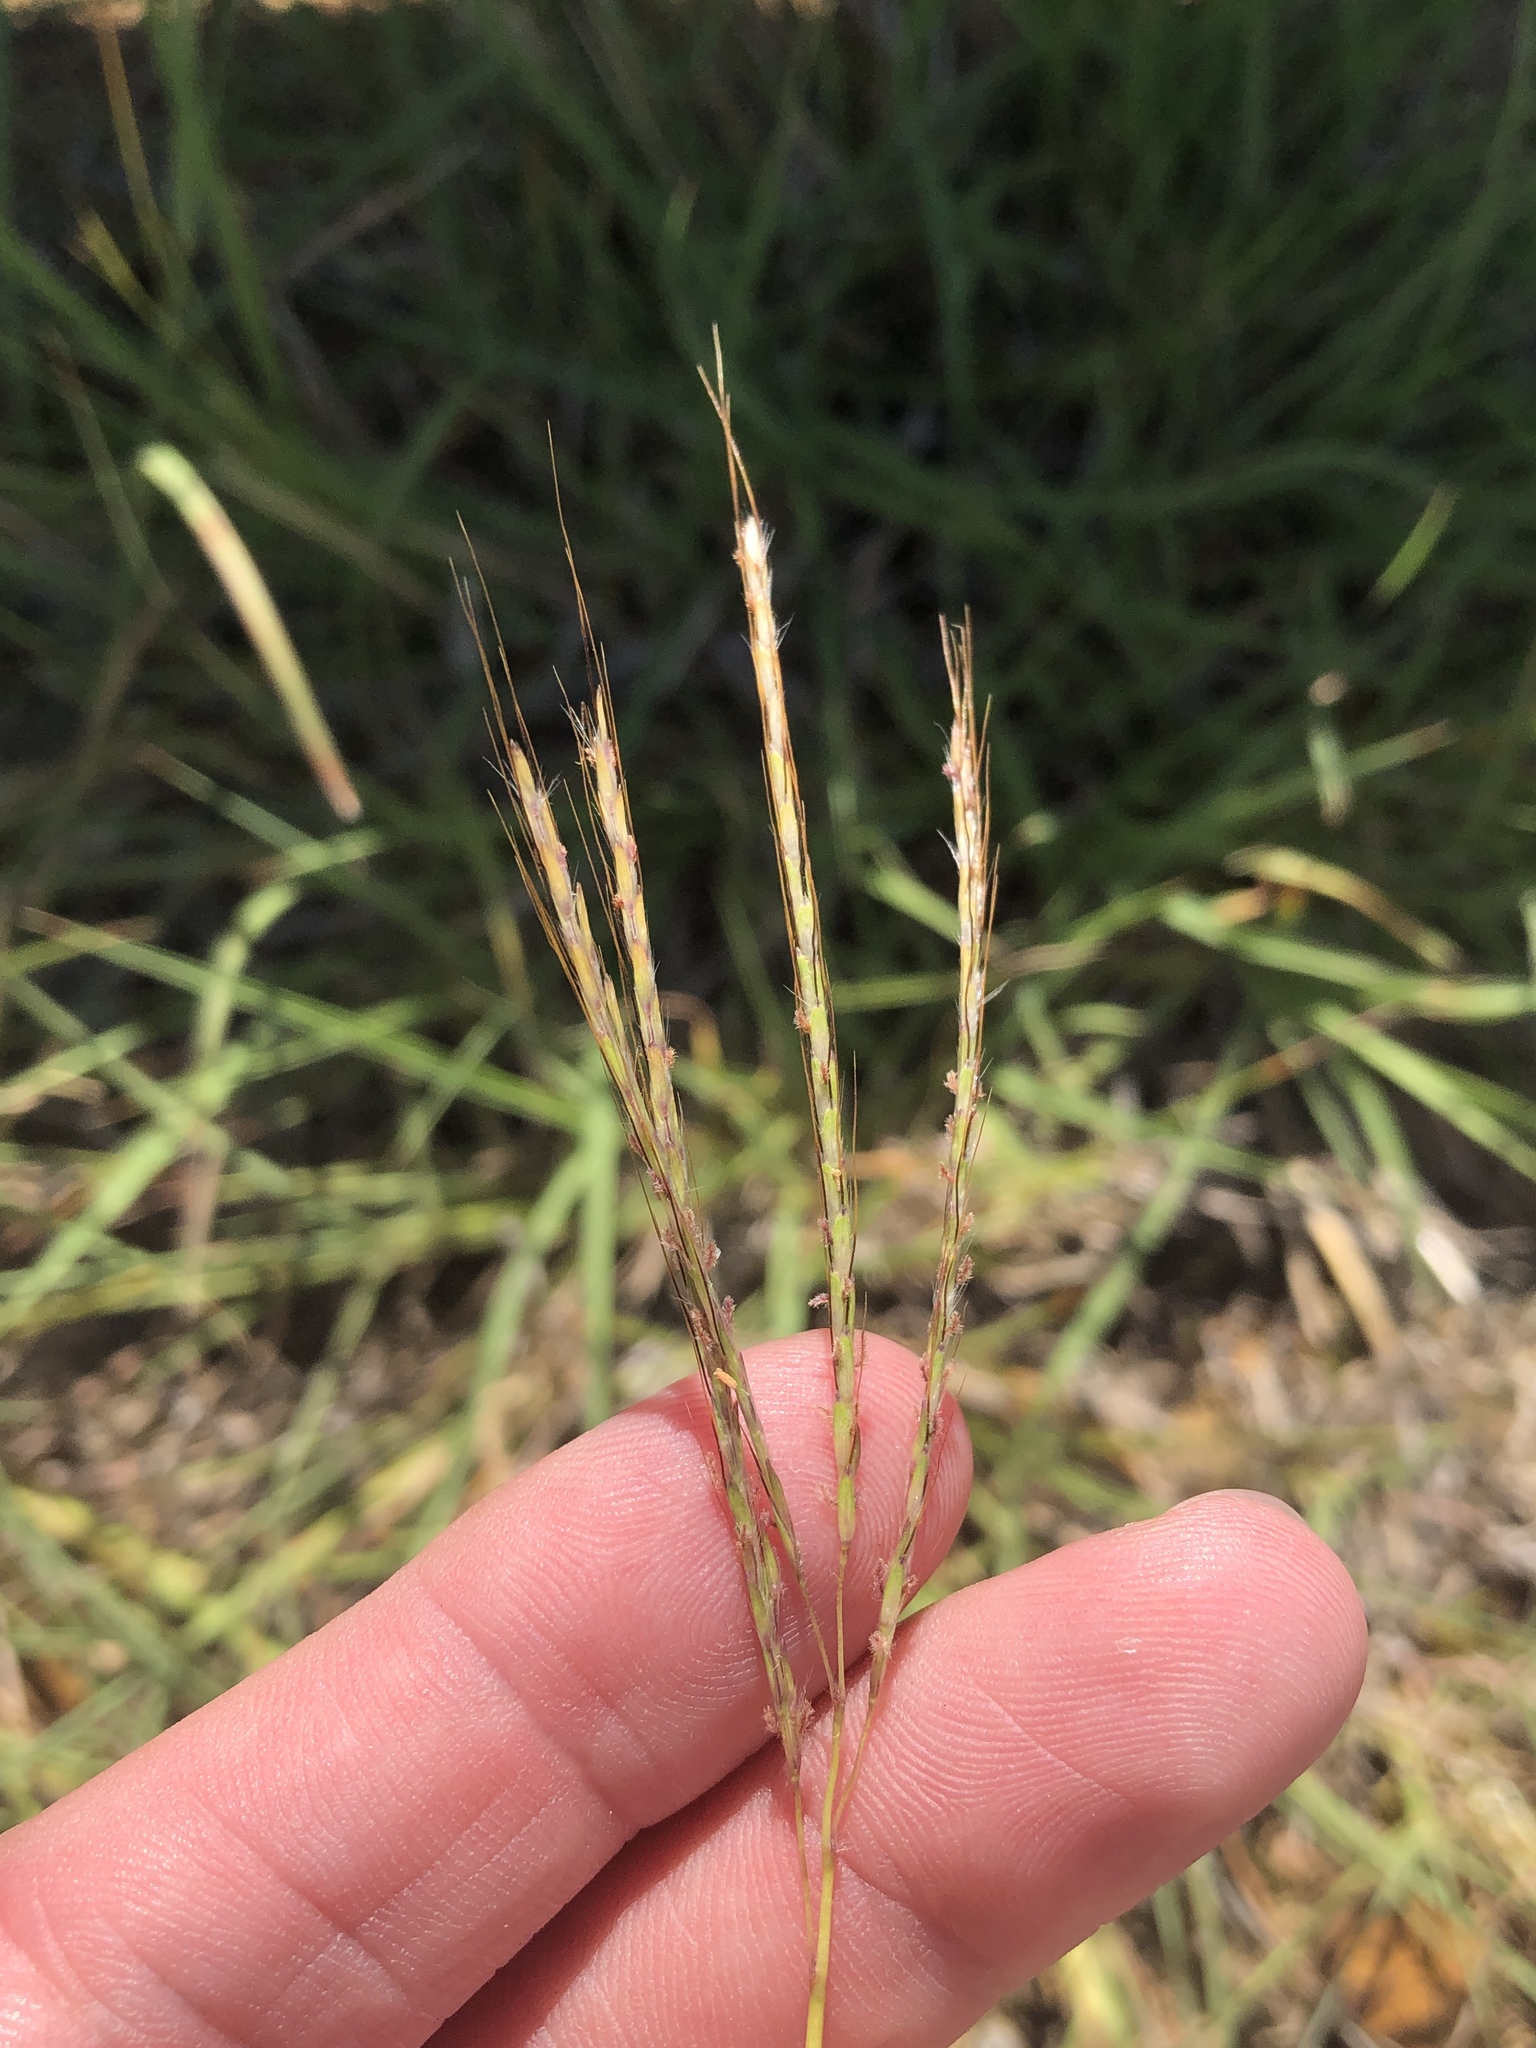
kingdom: Plantae
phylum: Tracheophyta
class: Liliopsida
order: Poales
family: Poaceae
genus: Bothriochloa
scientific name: Bothriochloa ischaemum
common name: Yellow bluestem
